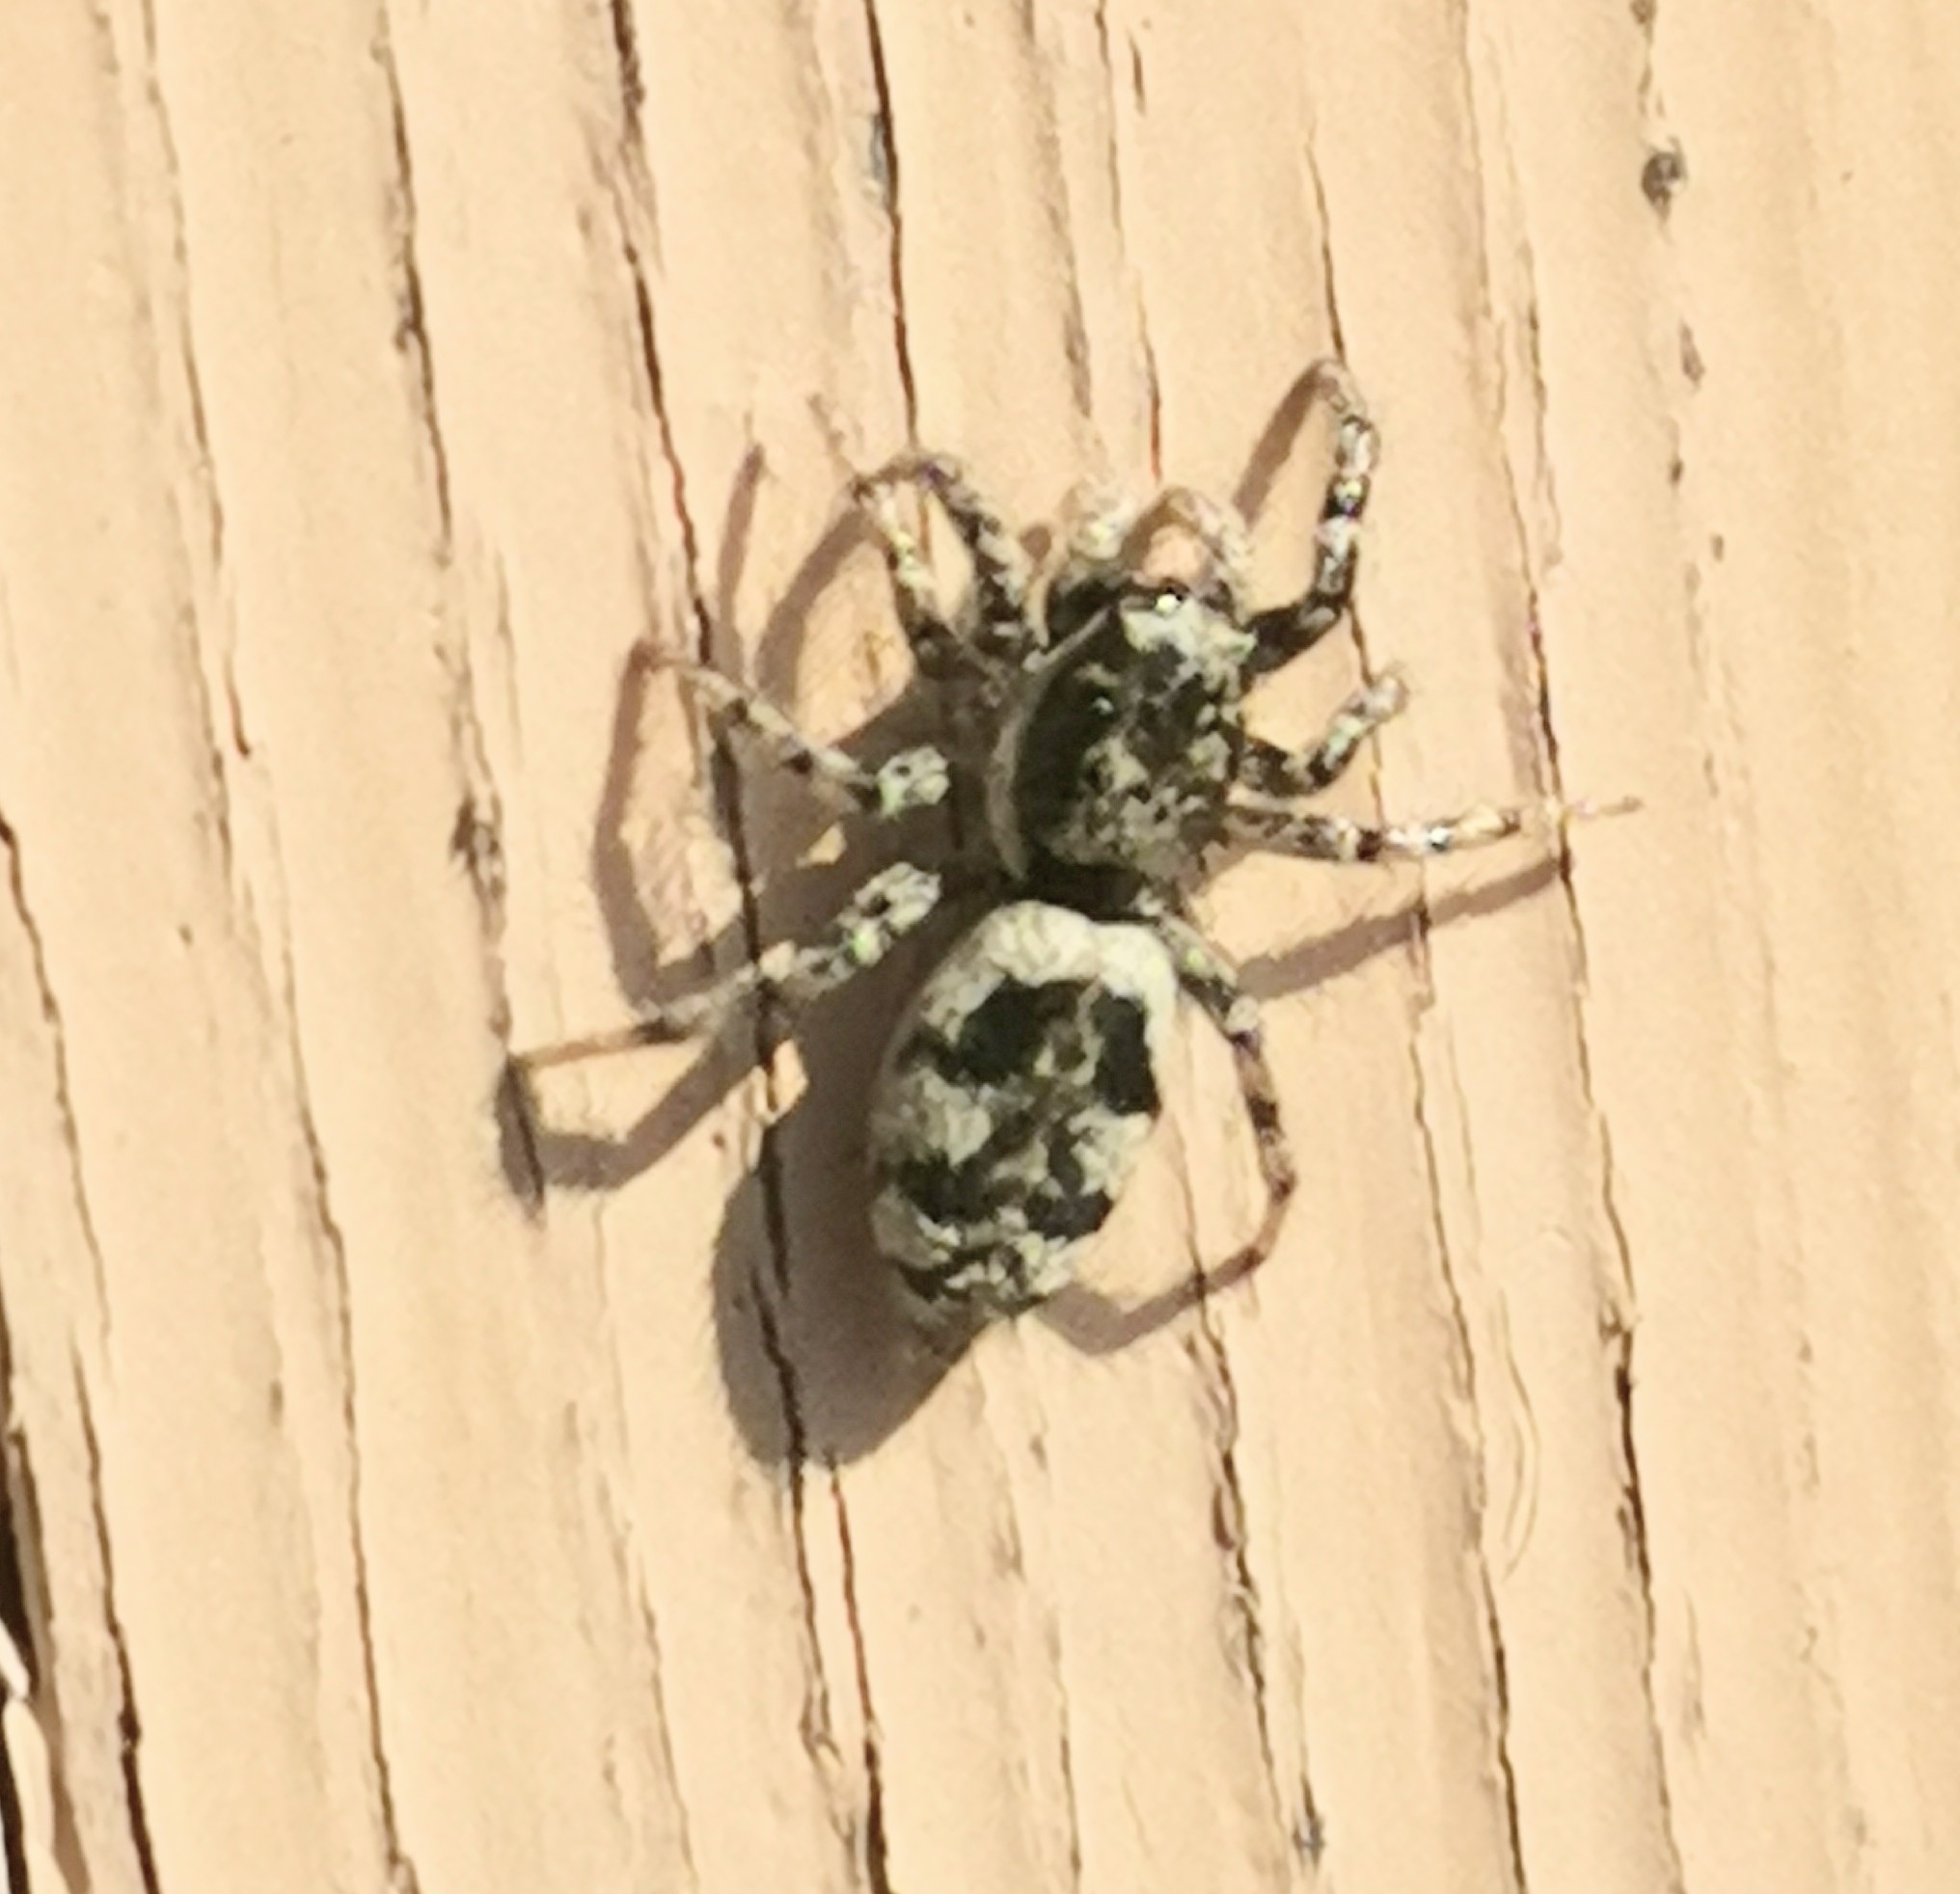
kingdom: Animalia
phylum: Arthropoda
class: Arachnida
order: Araneae
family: Salticidae
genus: Salticus
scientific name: Salticus cingulatus
